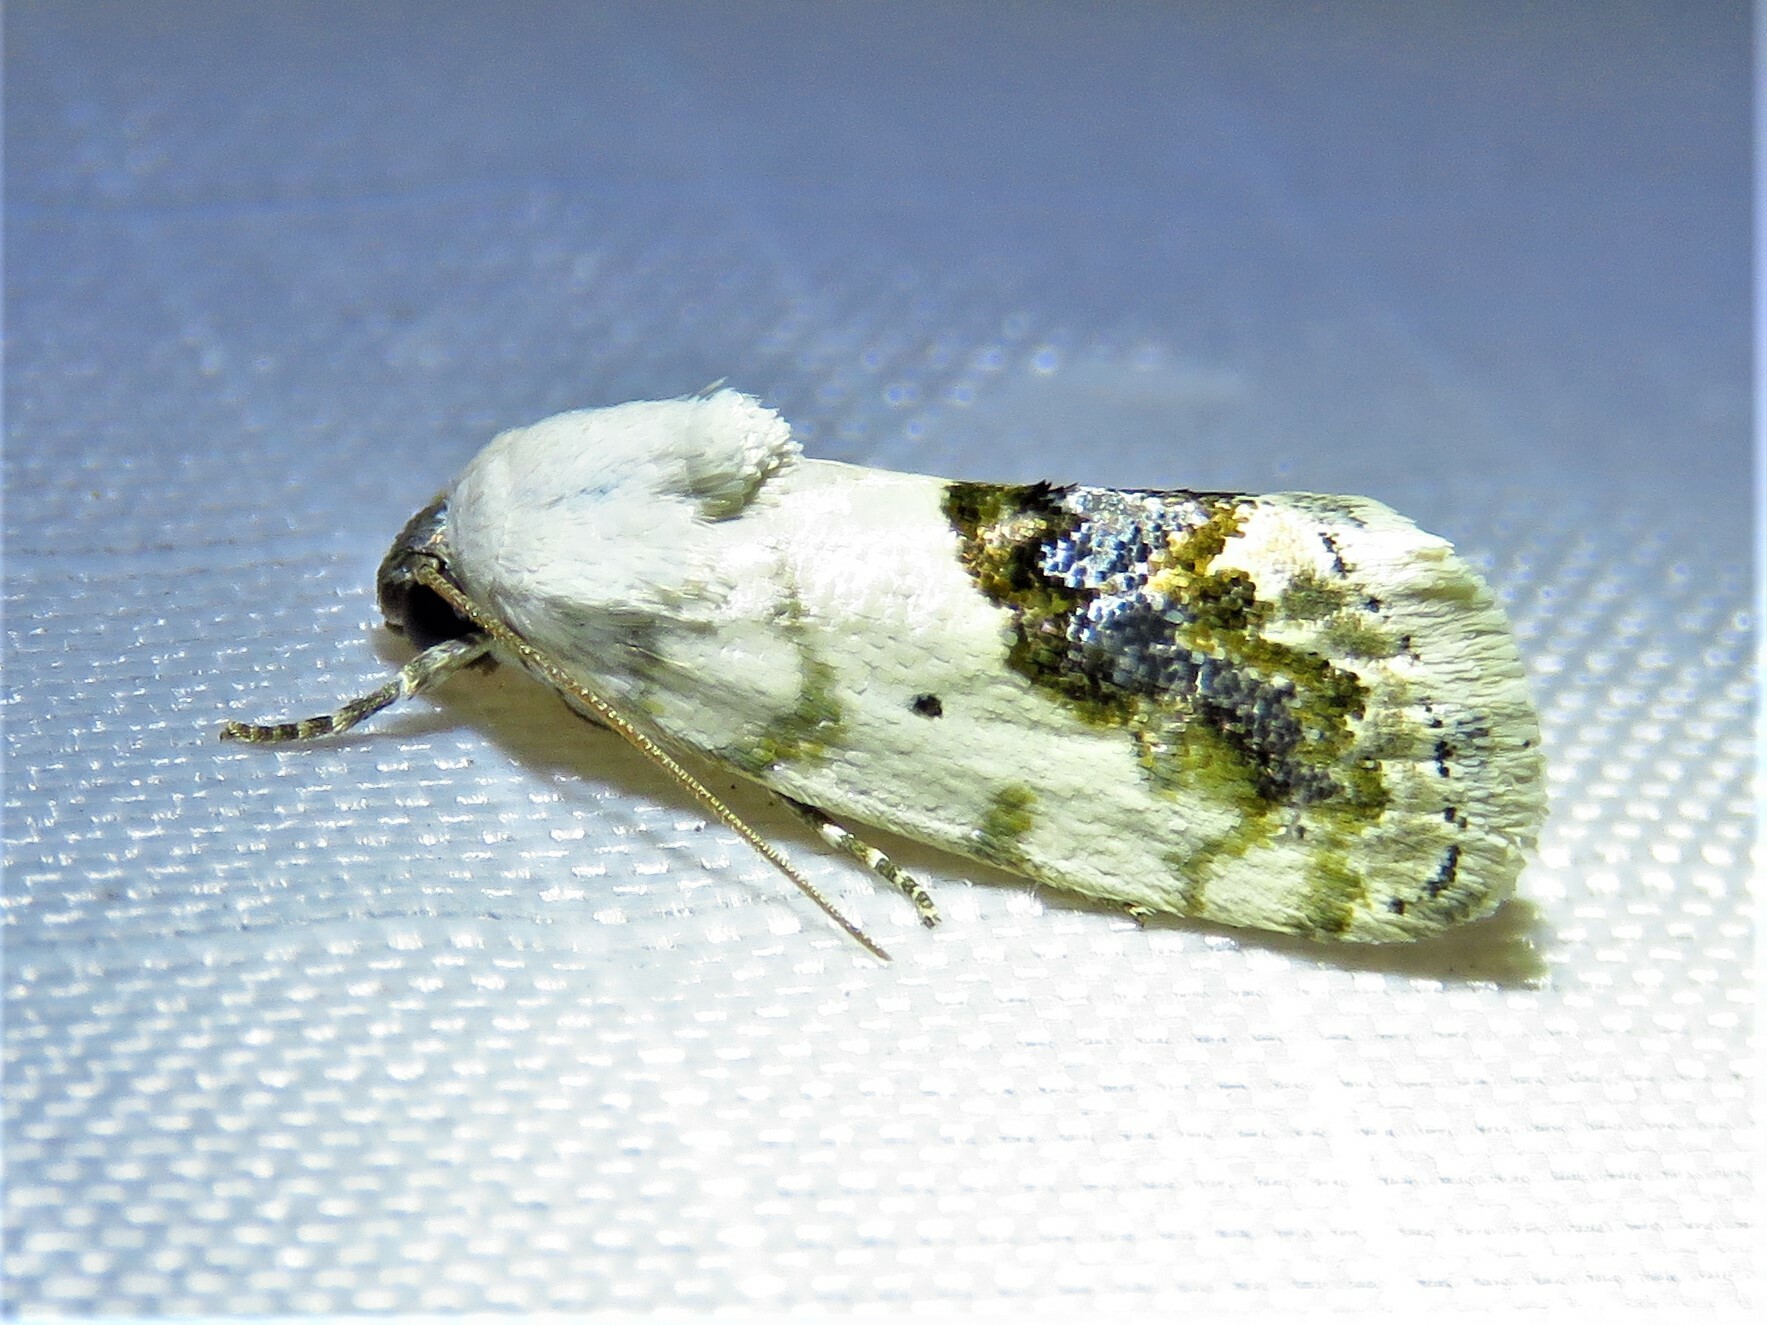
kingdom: Animalia
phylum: Arthropoda
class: Insecta
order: Lepidoptera
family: Noctuidae
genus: Acontia
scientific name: Acontia erastrioides
